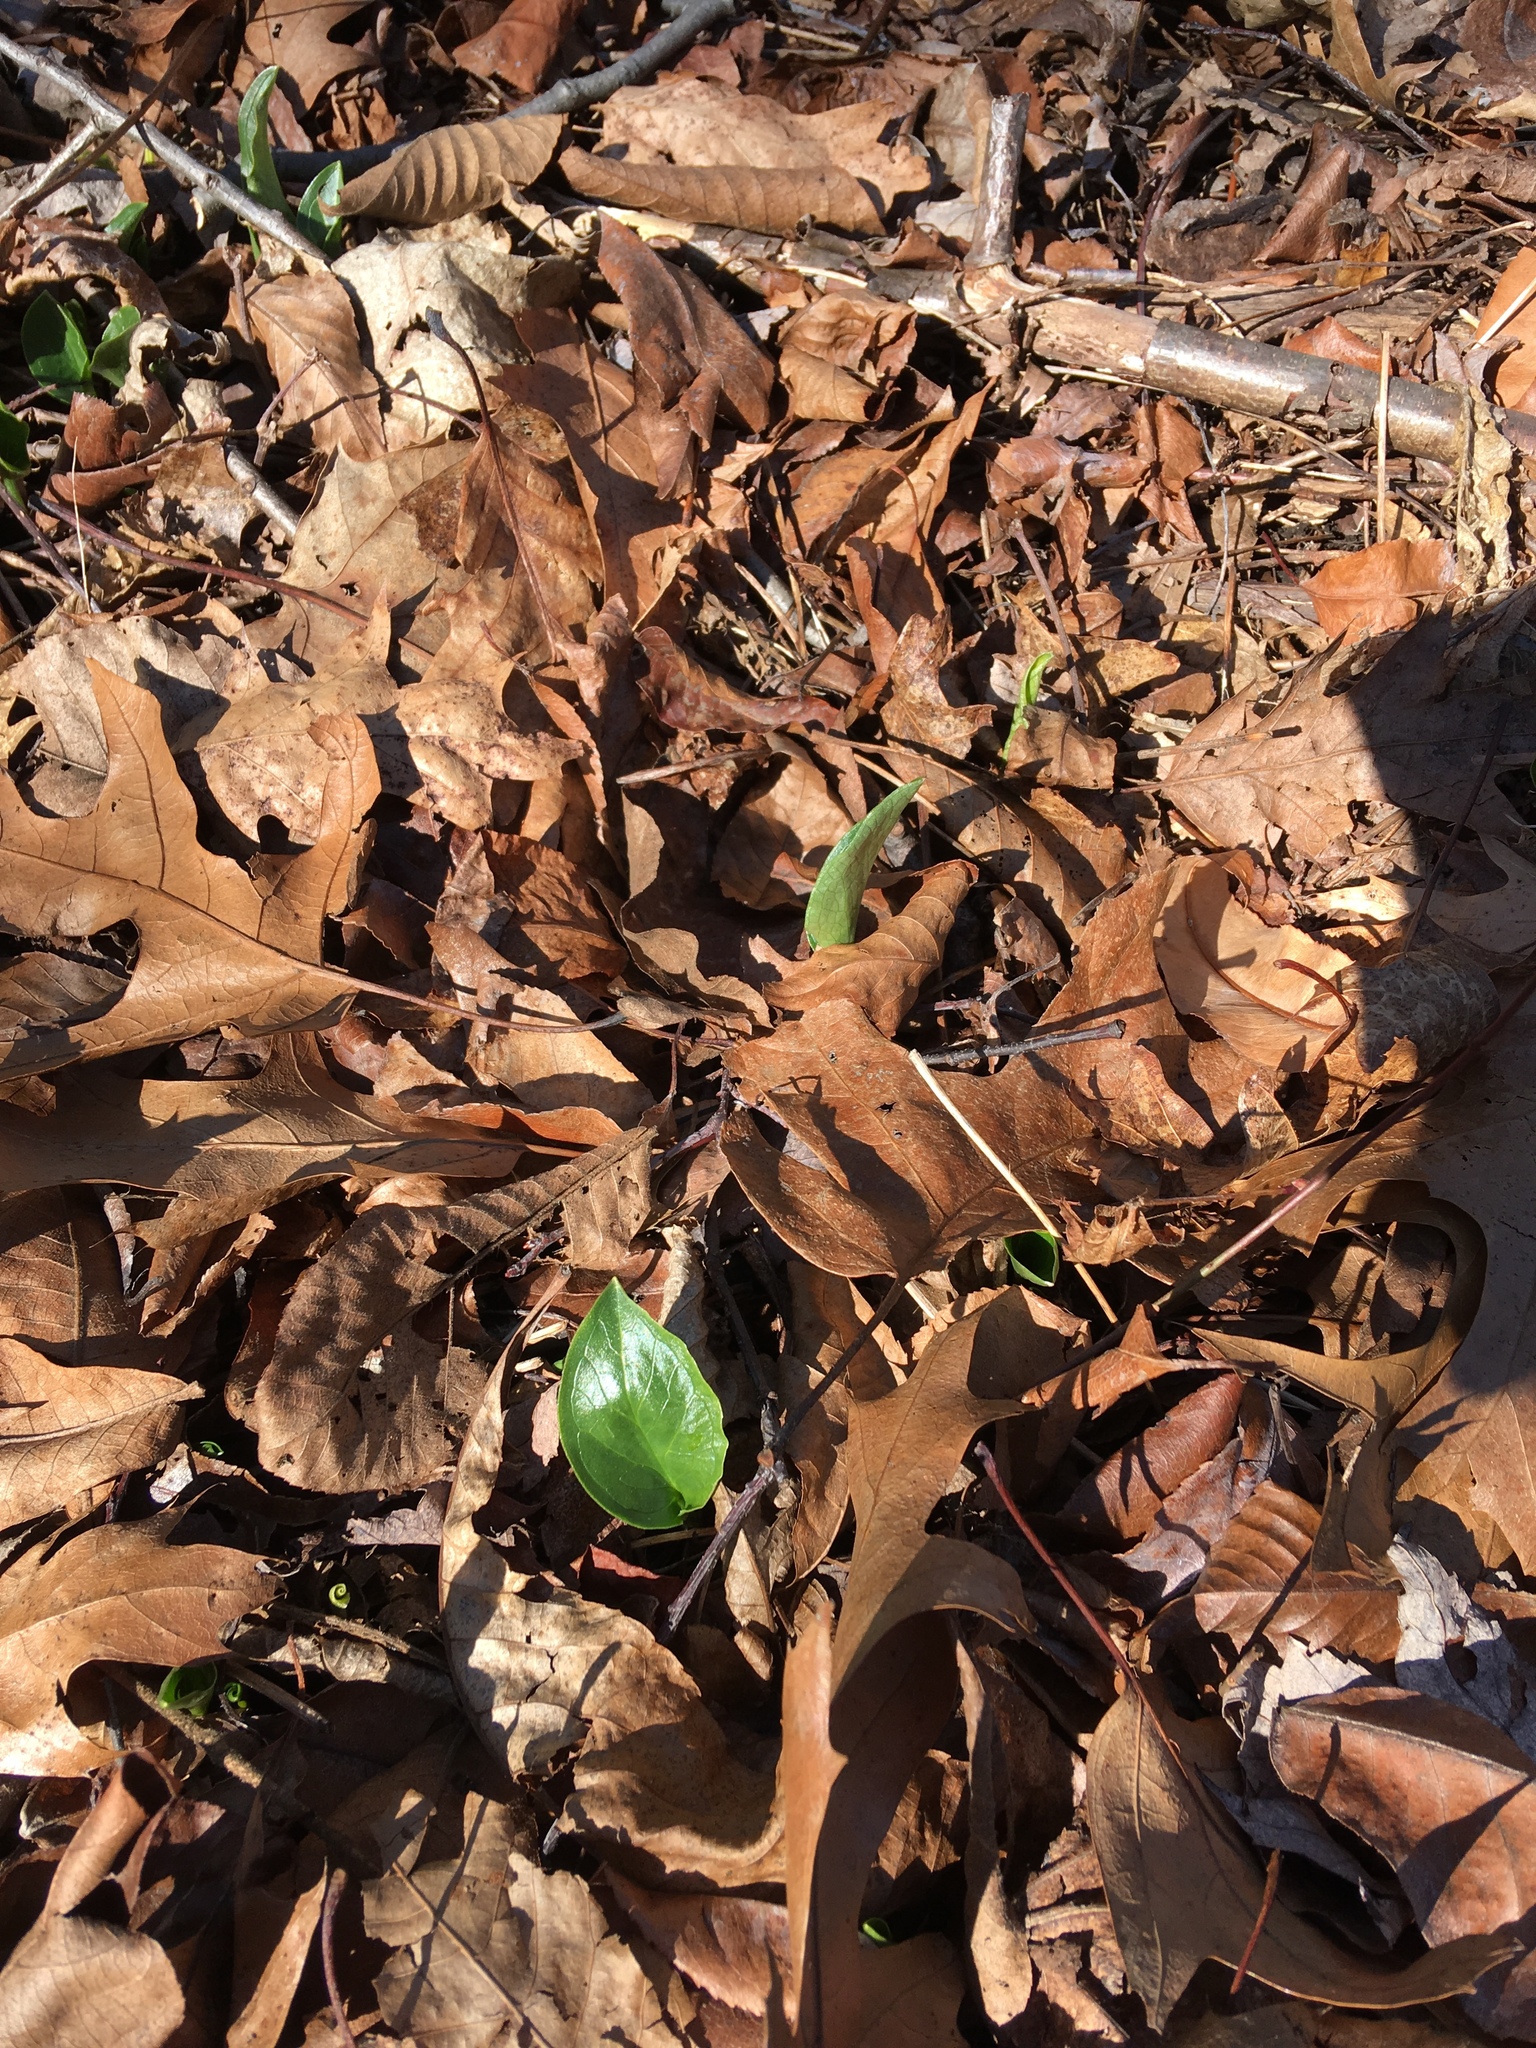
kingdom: Plantae
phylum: Tracheophyta
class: Liliopsida
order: Alismatales
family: Araceae
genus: Arum
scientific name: Arum italicum
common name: Italian lords-and-ladies
